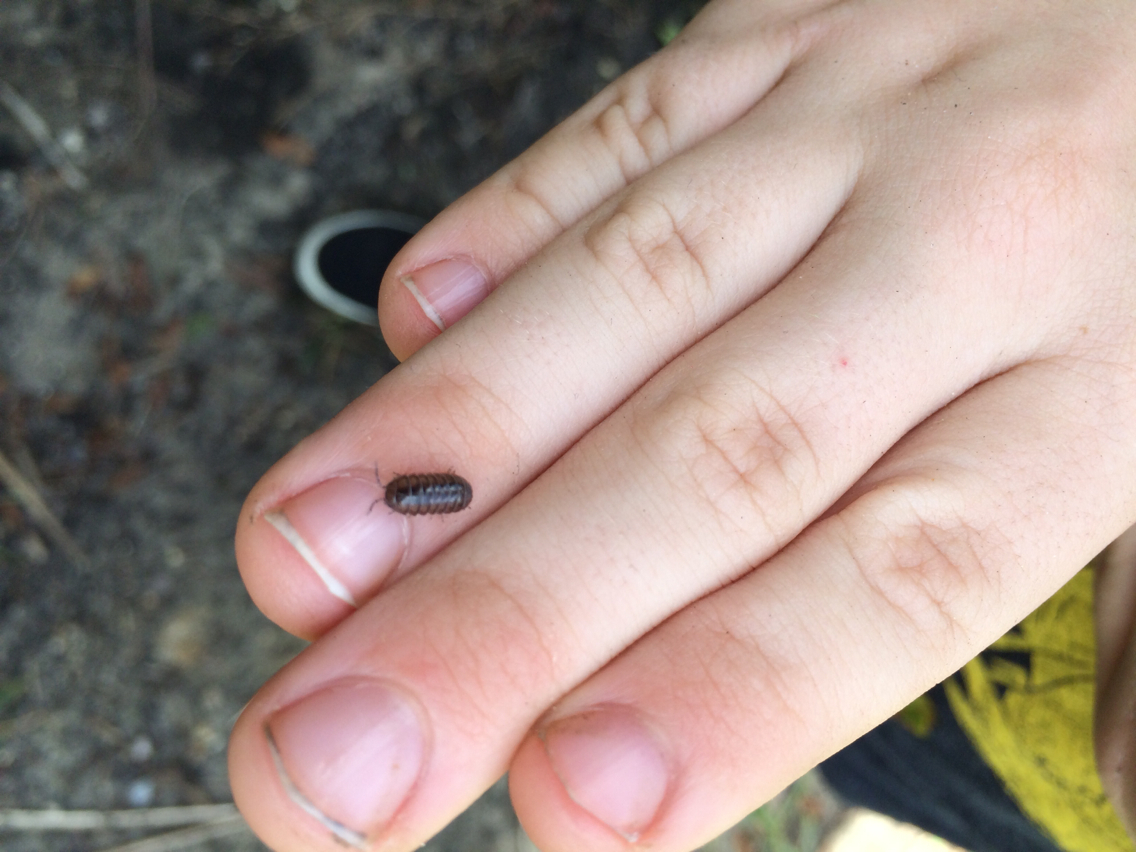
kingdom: Animalia
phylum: Arthropoda
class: Malacostraca
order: Isopoda
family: Armadillidiidae
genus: Armadillidium
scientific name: Armadillidium vulgare
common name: Common pill woodlouse
